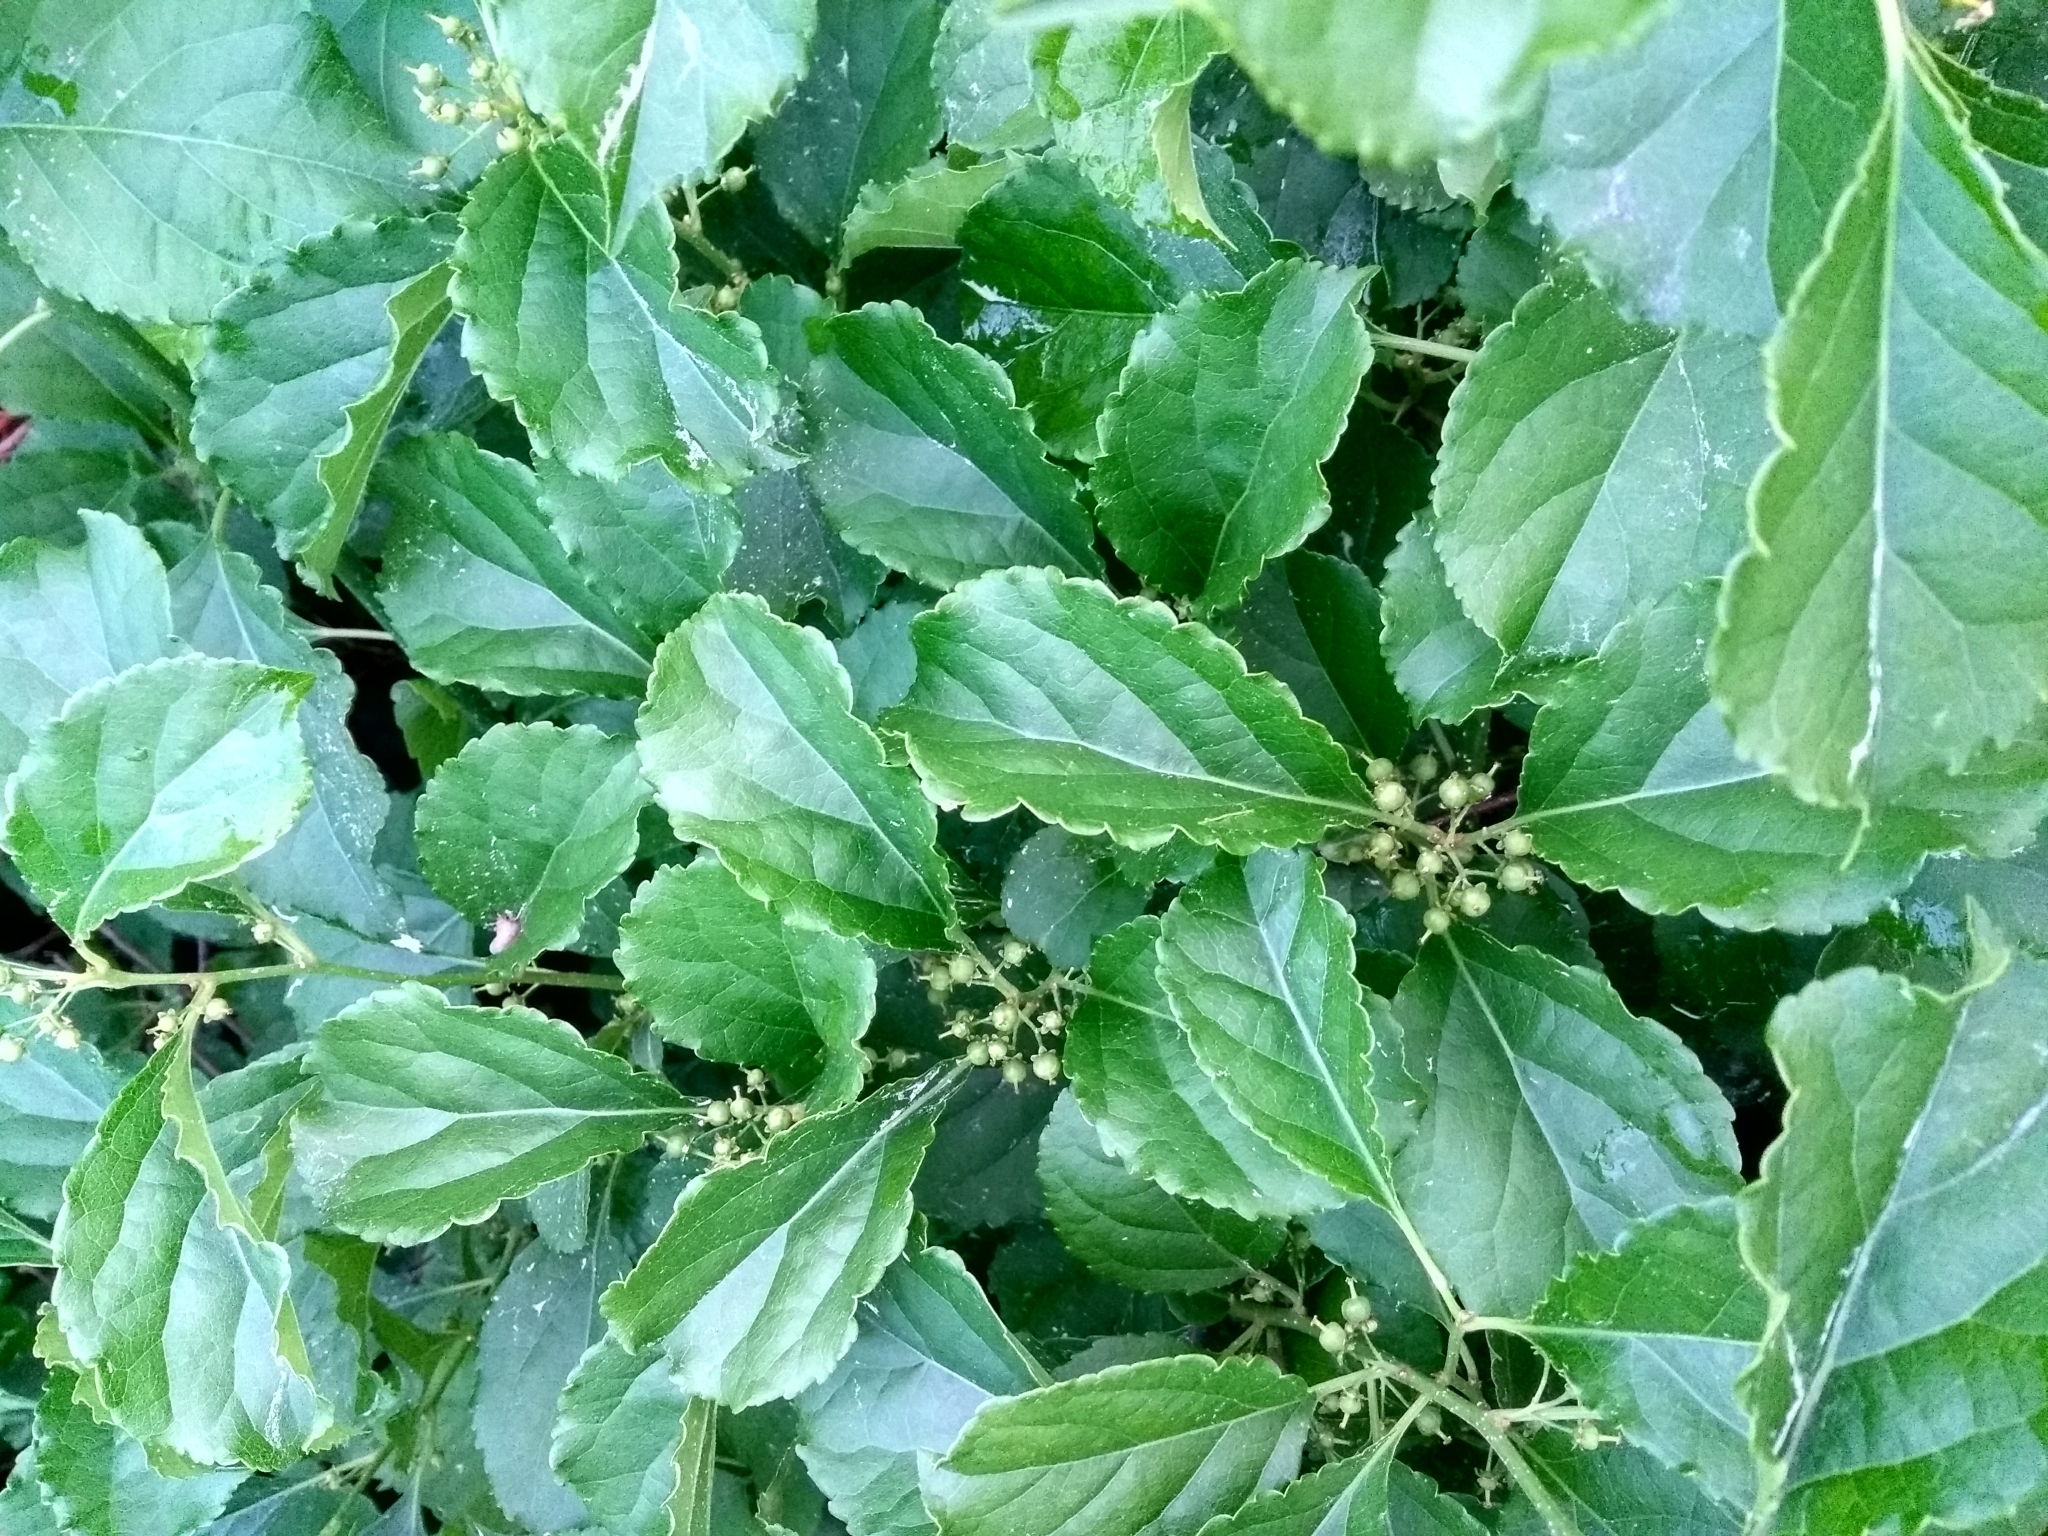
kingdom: Plantae
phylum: Tracheophyta
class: Magnoliopsida
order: Celastrales
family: Celastraceae
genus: Celastrus
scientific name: Celastrus orbiculatus
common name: Oriental bittersweet
